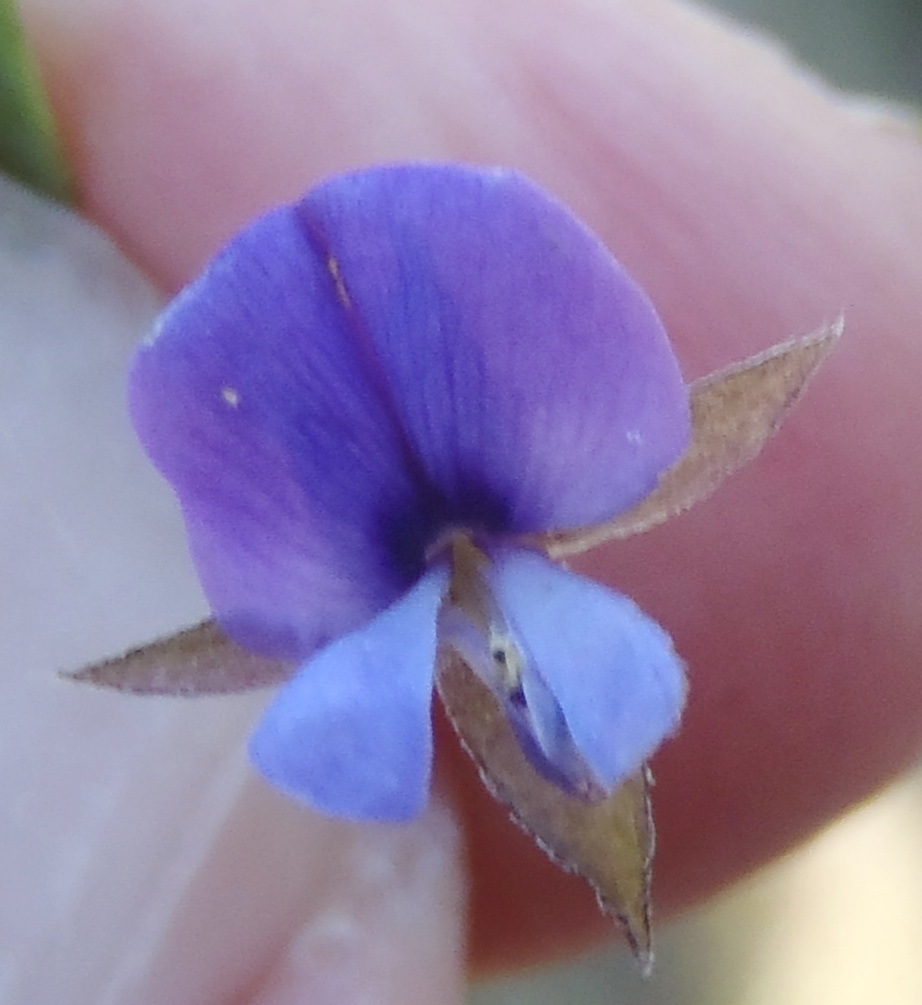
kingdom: Plantae
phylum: Tracheophyta
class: Magnoliopsida
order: Fabales
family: Fabaceae
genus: Psoralea
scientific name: Psoralea asarina
